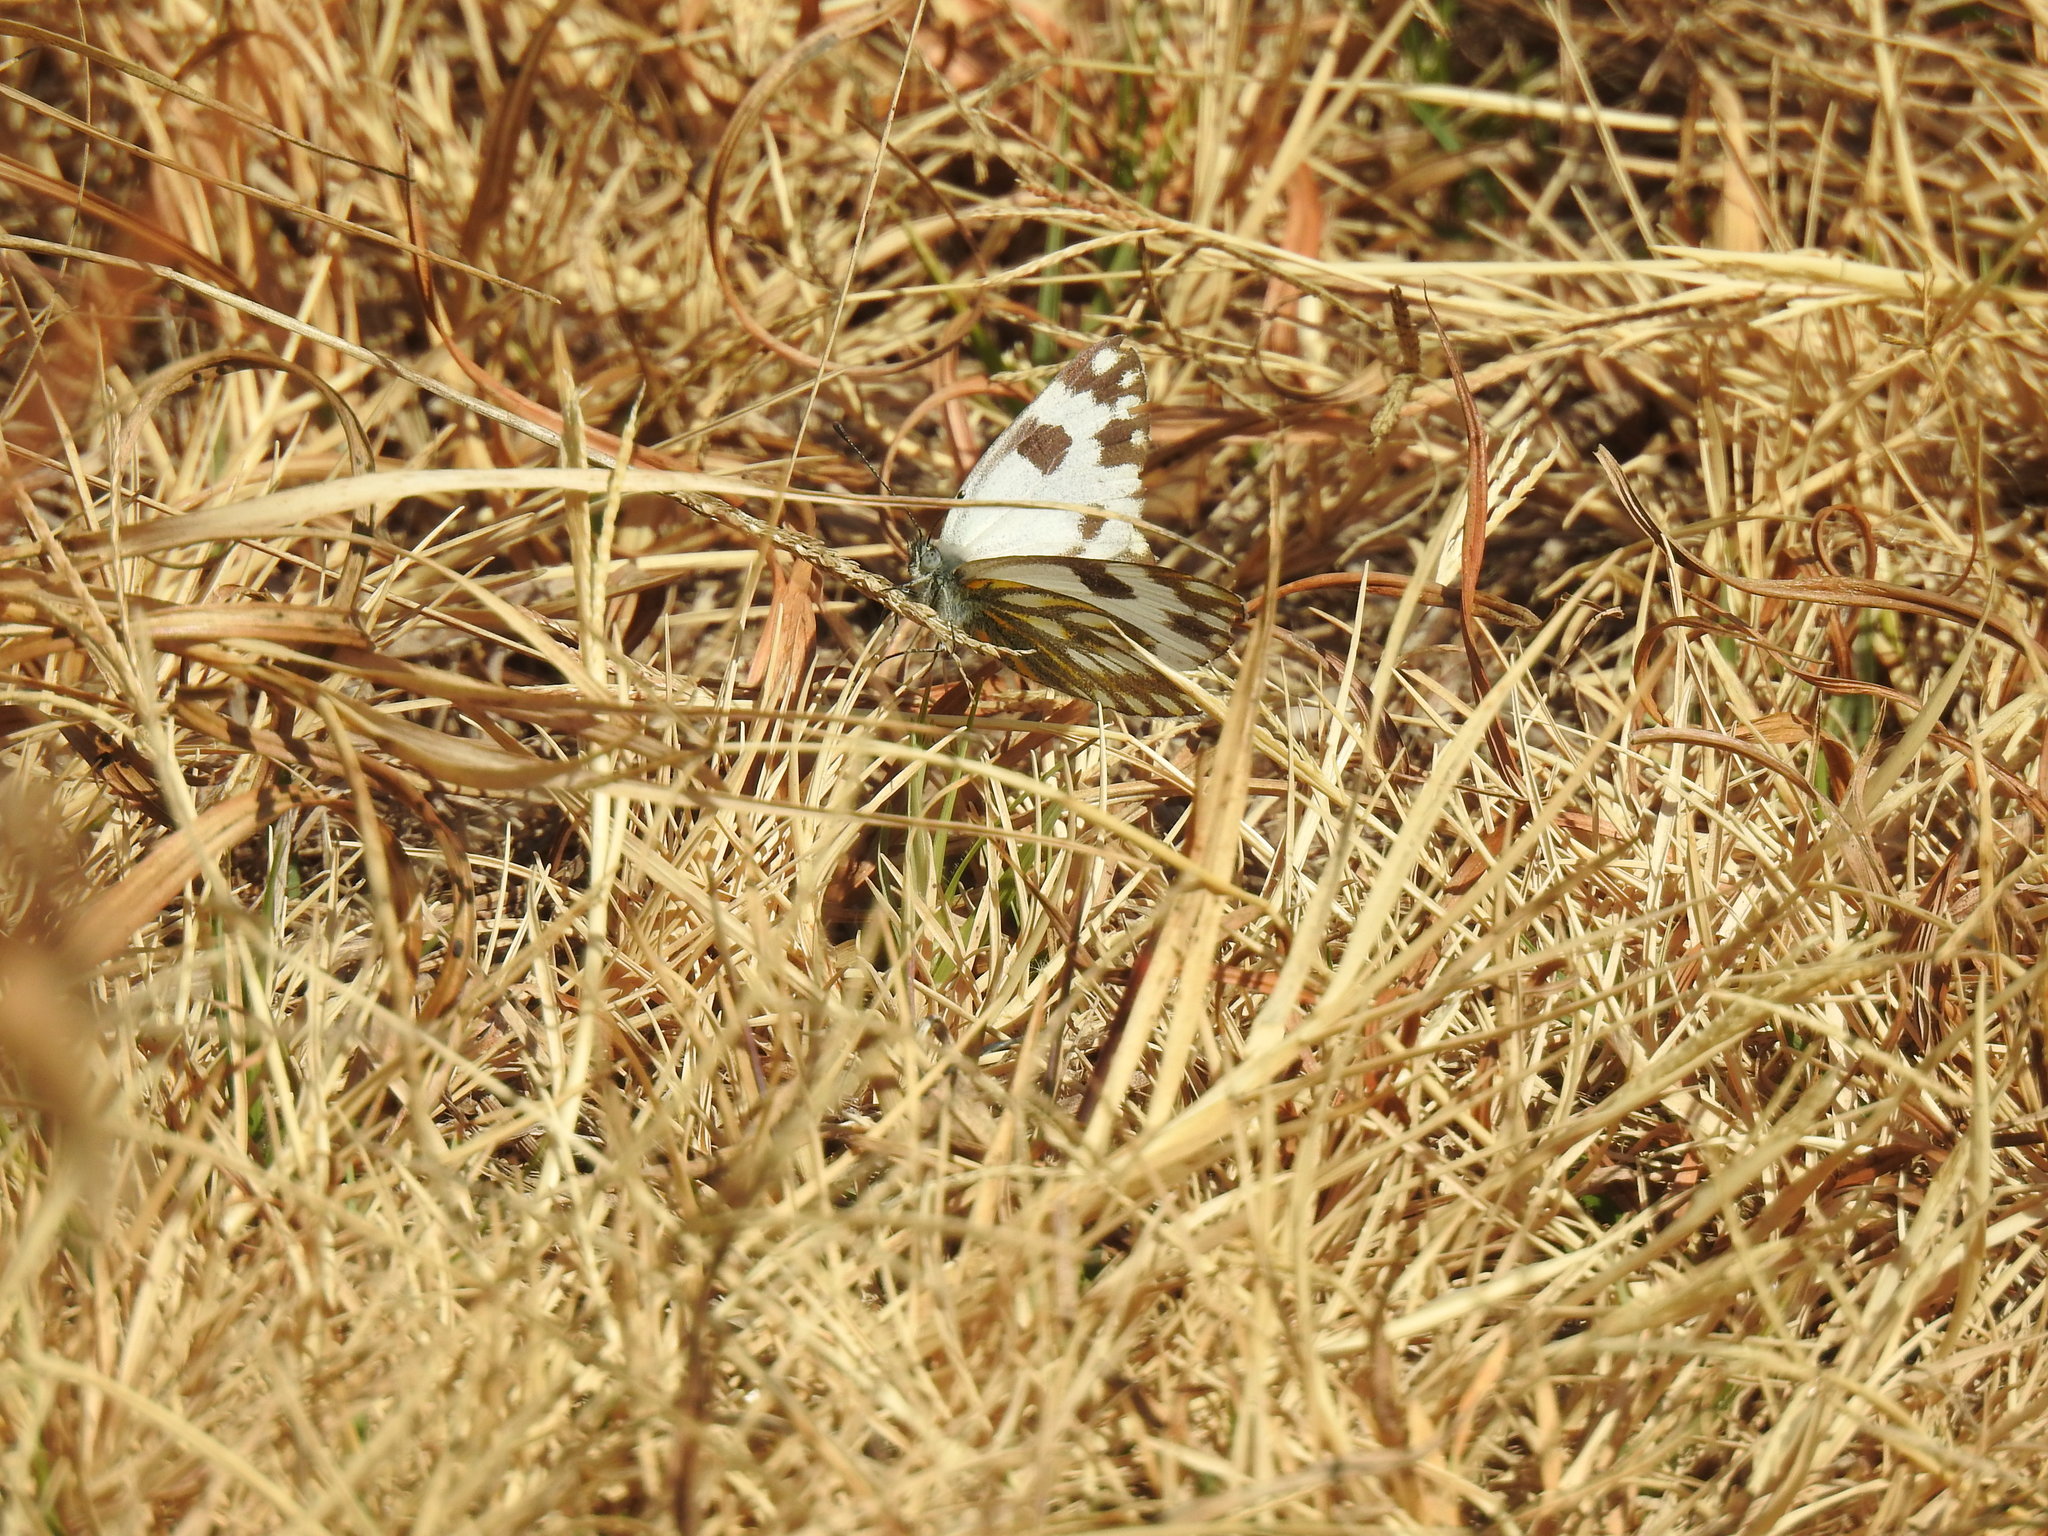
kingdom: Animalia
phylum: Arthropoda
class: Insecta
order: Lepidoptera
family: Pieridae
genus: Pontia
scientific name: Pontia helice
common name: Meadow white
